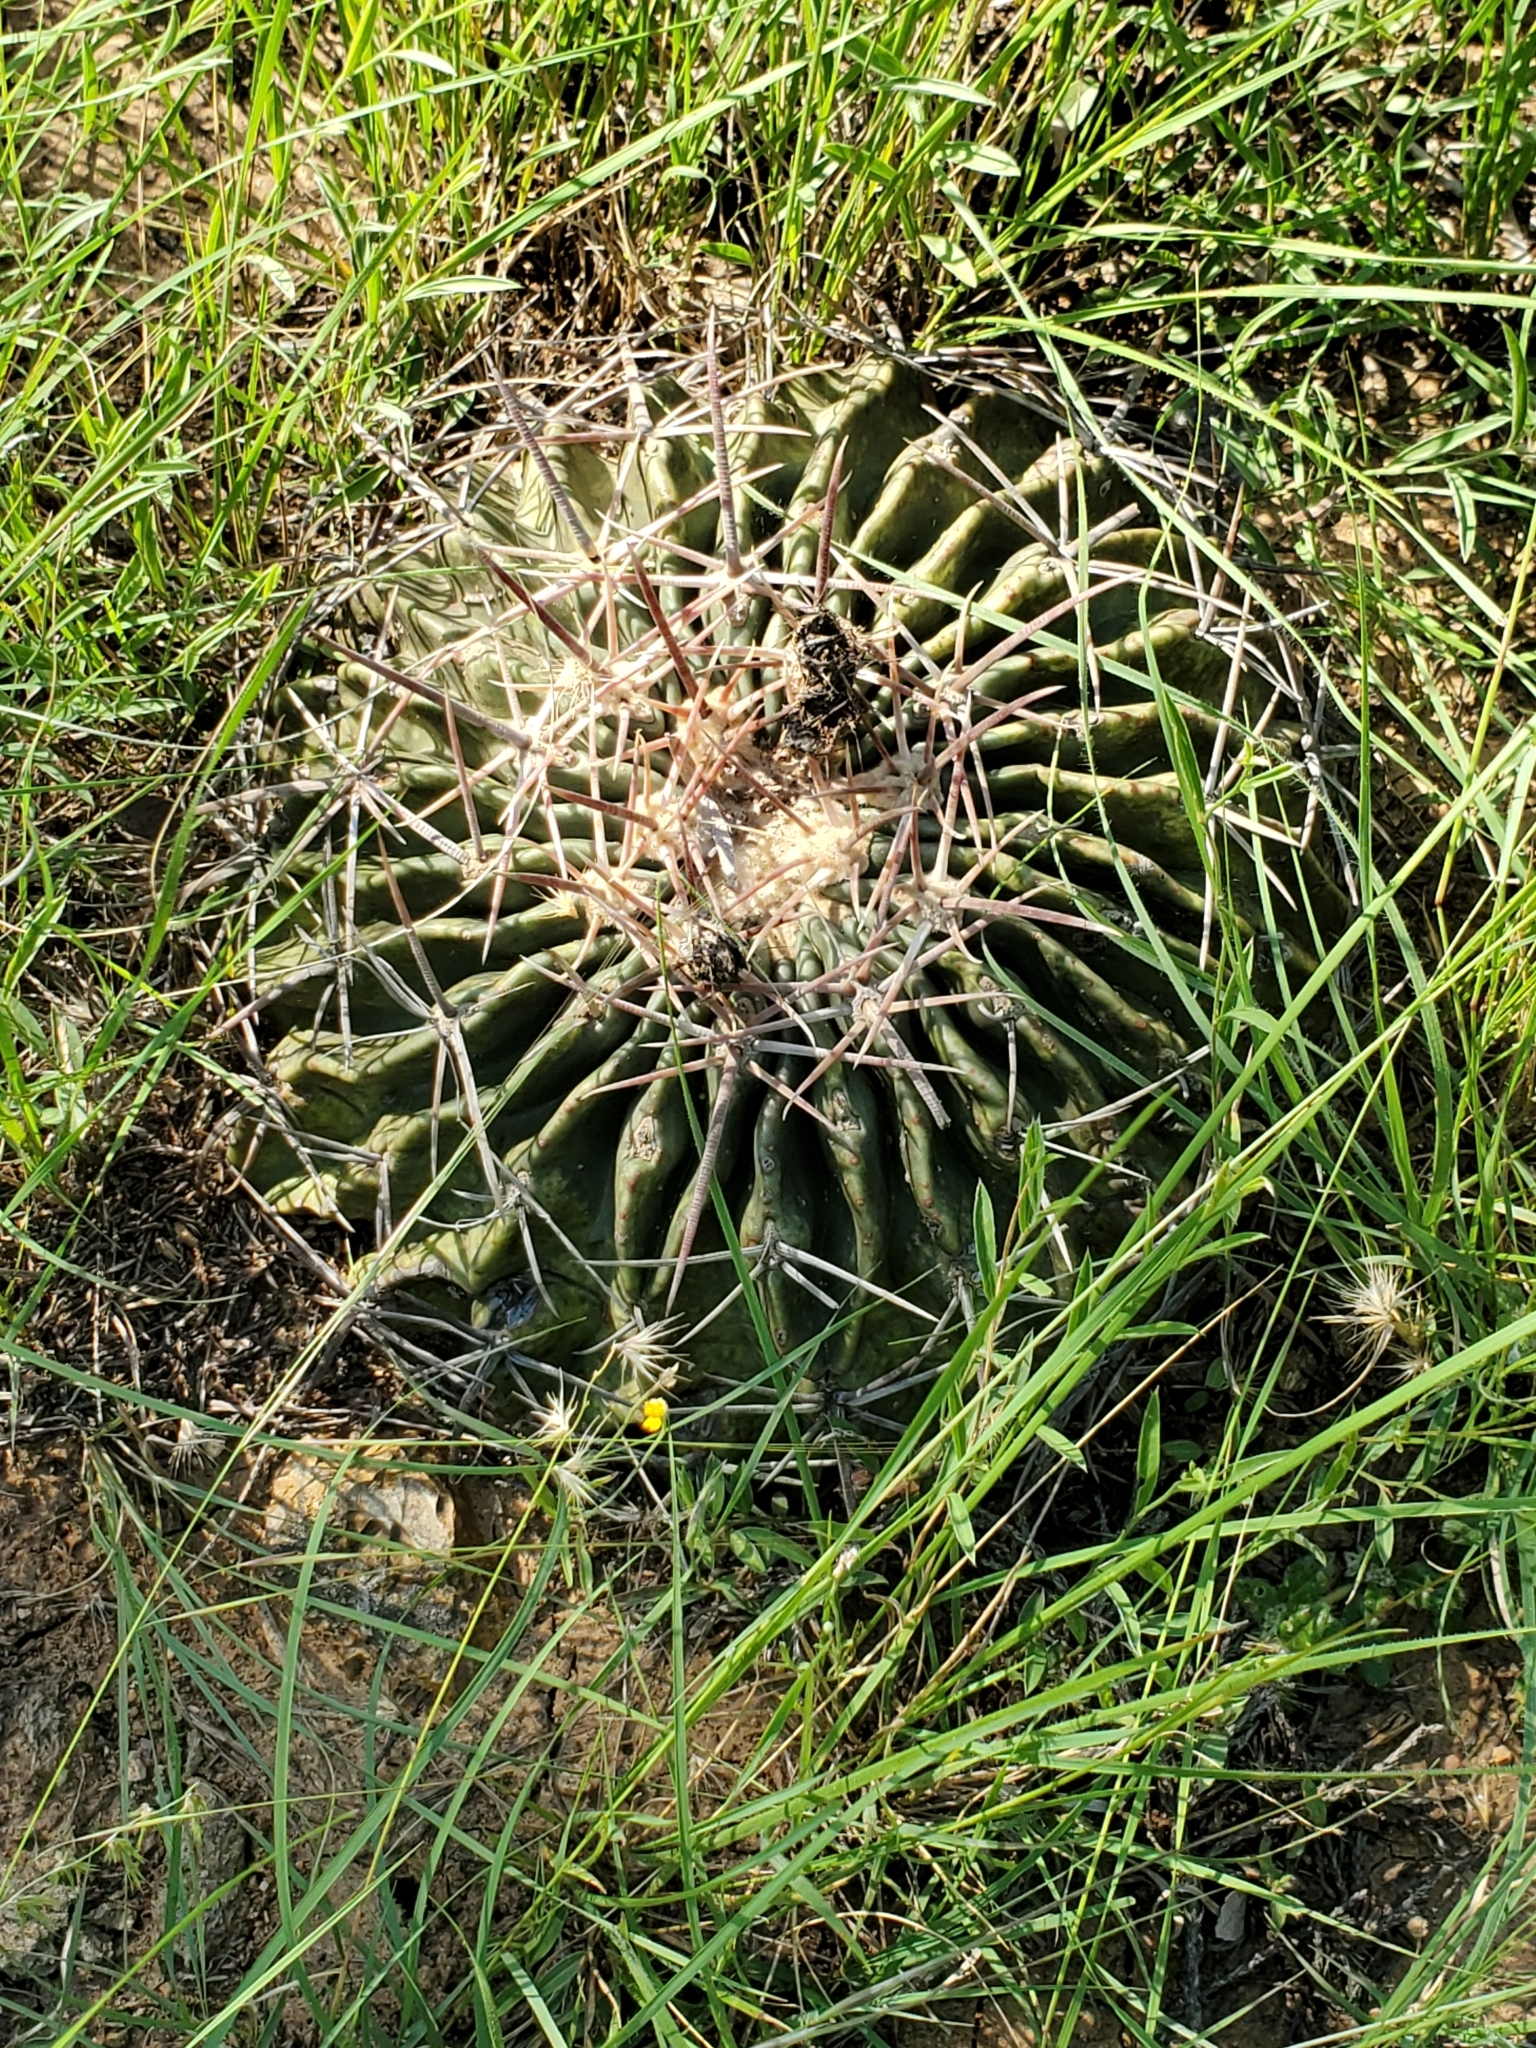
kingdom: Plantae
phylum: Tracheophyta
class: Magnoliopsida
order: Caryophyllales
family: Cactaceae
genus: Echinocactus
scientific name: Echinocactus texensis
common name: Devil's pincushion
